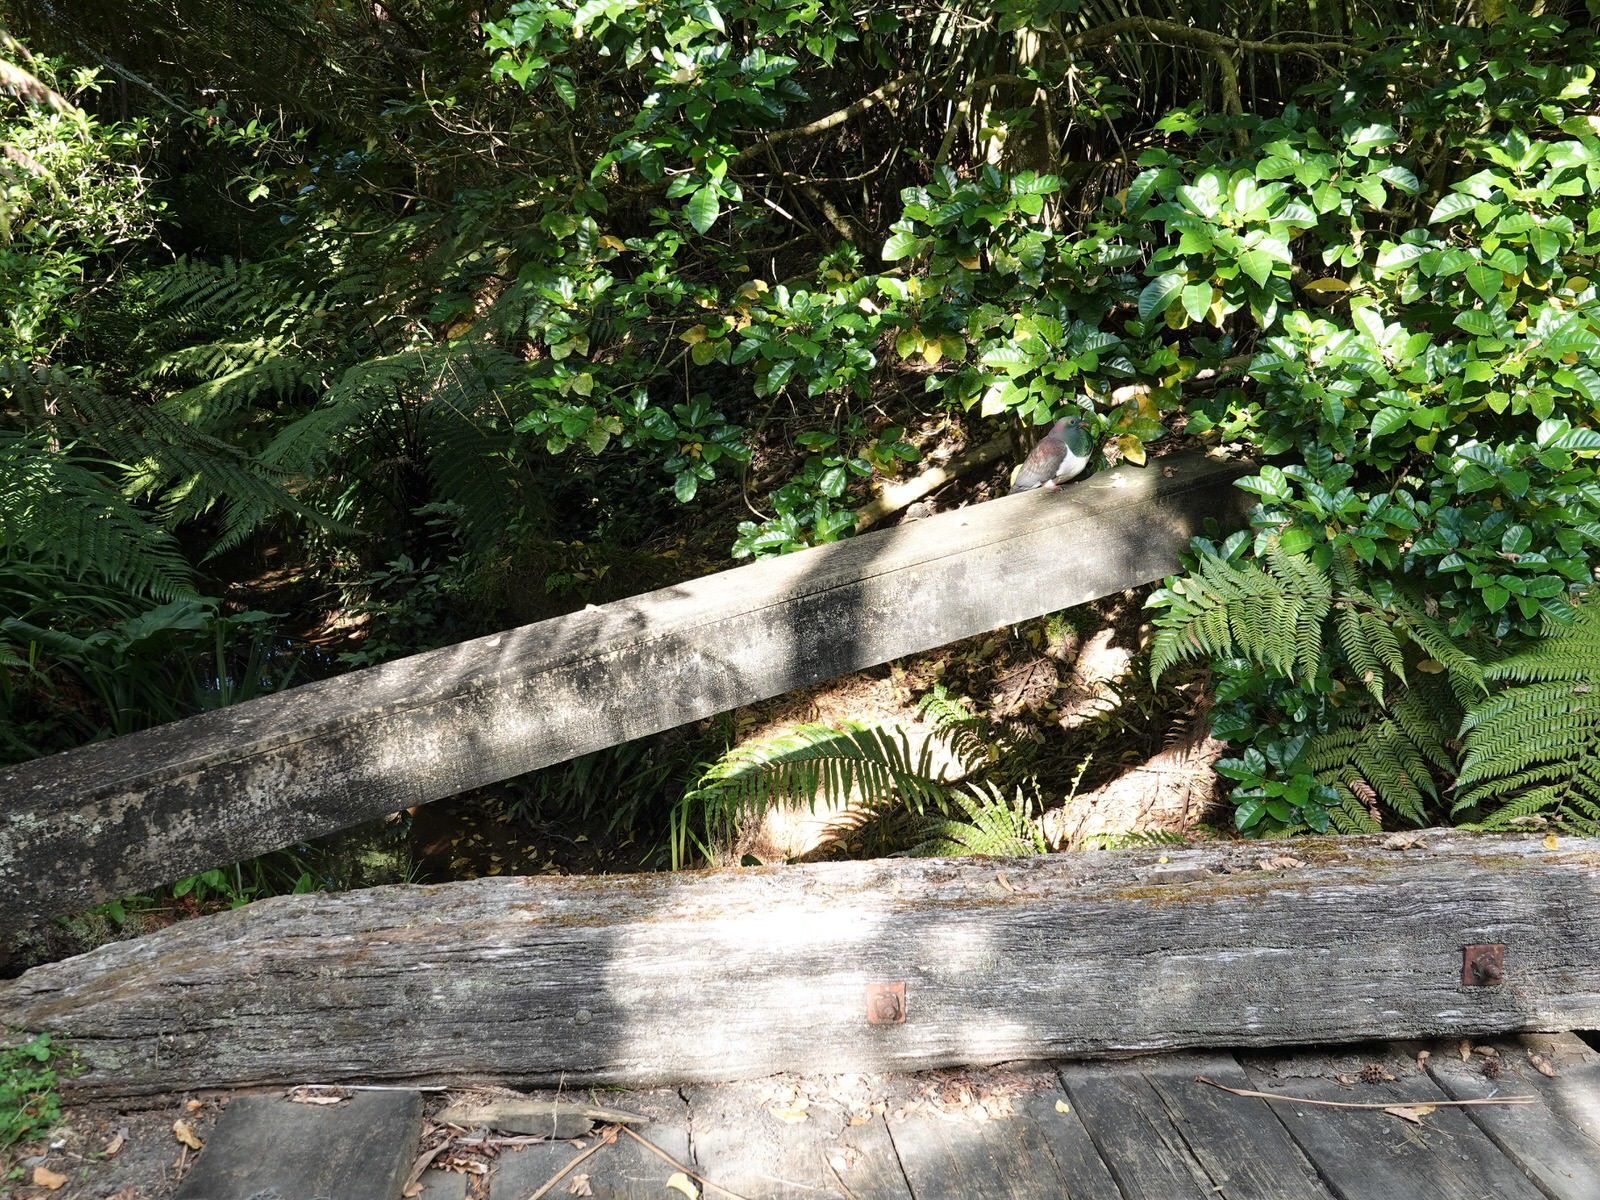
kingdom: Animalia
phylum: Chordata
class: Aves
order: Columbiformes
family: Columbidae
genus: Hemiphaga
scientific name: Hemiphaga novaeseelandiae
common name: New zealand pigeon
